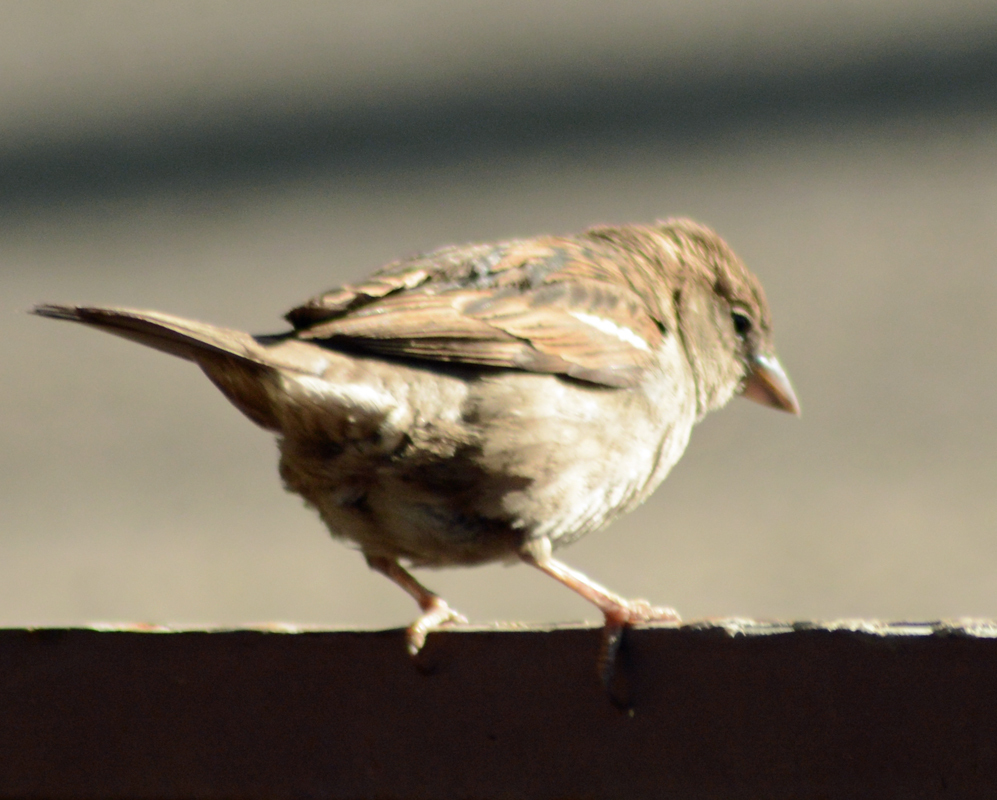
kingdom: Animalia
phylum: Chordata
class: Aves
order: Passeriformes
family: Passeridae
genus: Passer
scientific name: Passer domesticus
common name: House sparrow
